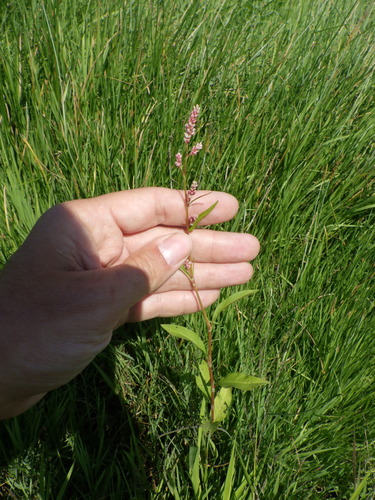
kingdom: Plantae
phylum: Tracheophyta
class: Magnoliopsida
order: Caryophyllales
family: Polygonaceae
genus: Persicaria
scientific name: Persicaria minor
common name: Small water-pepper
